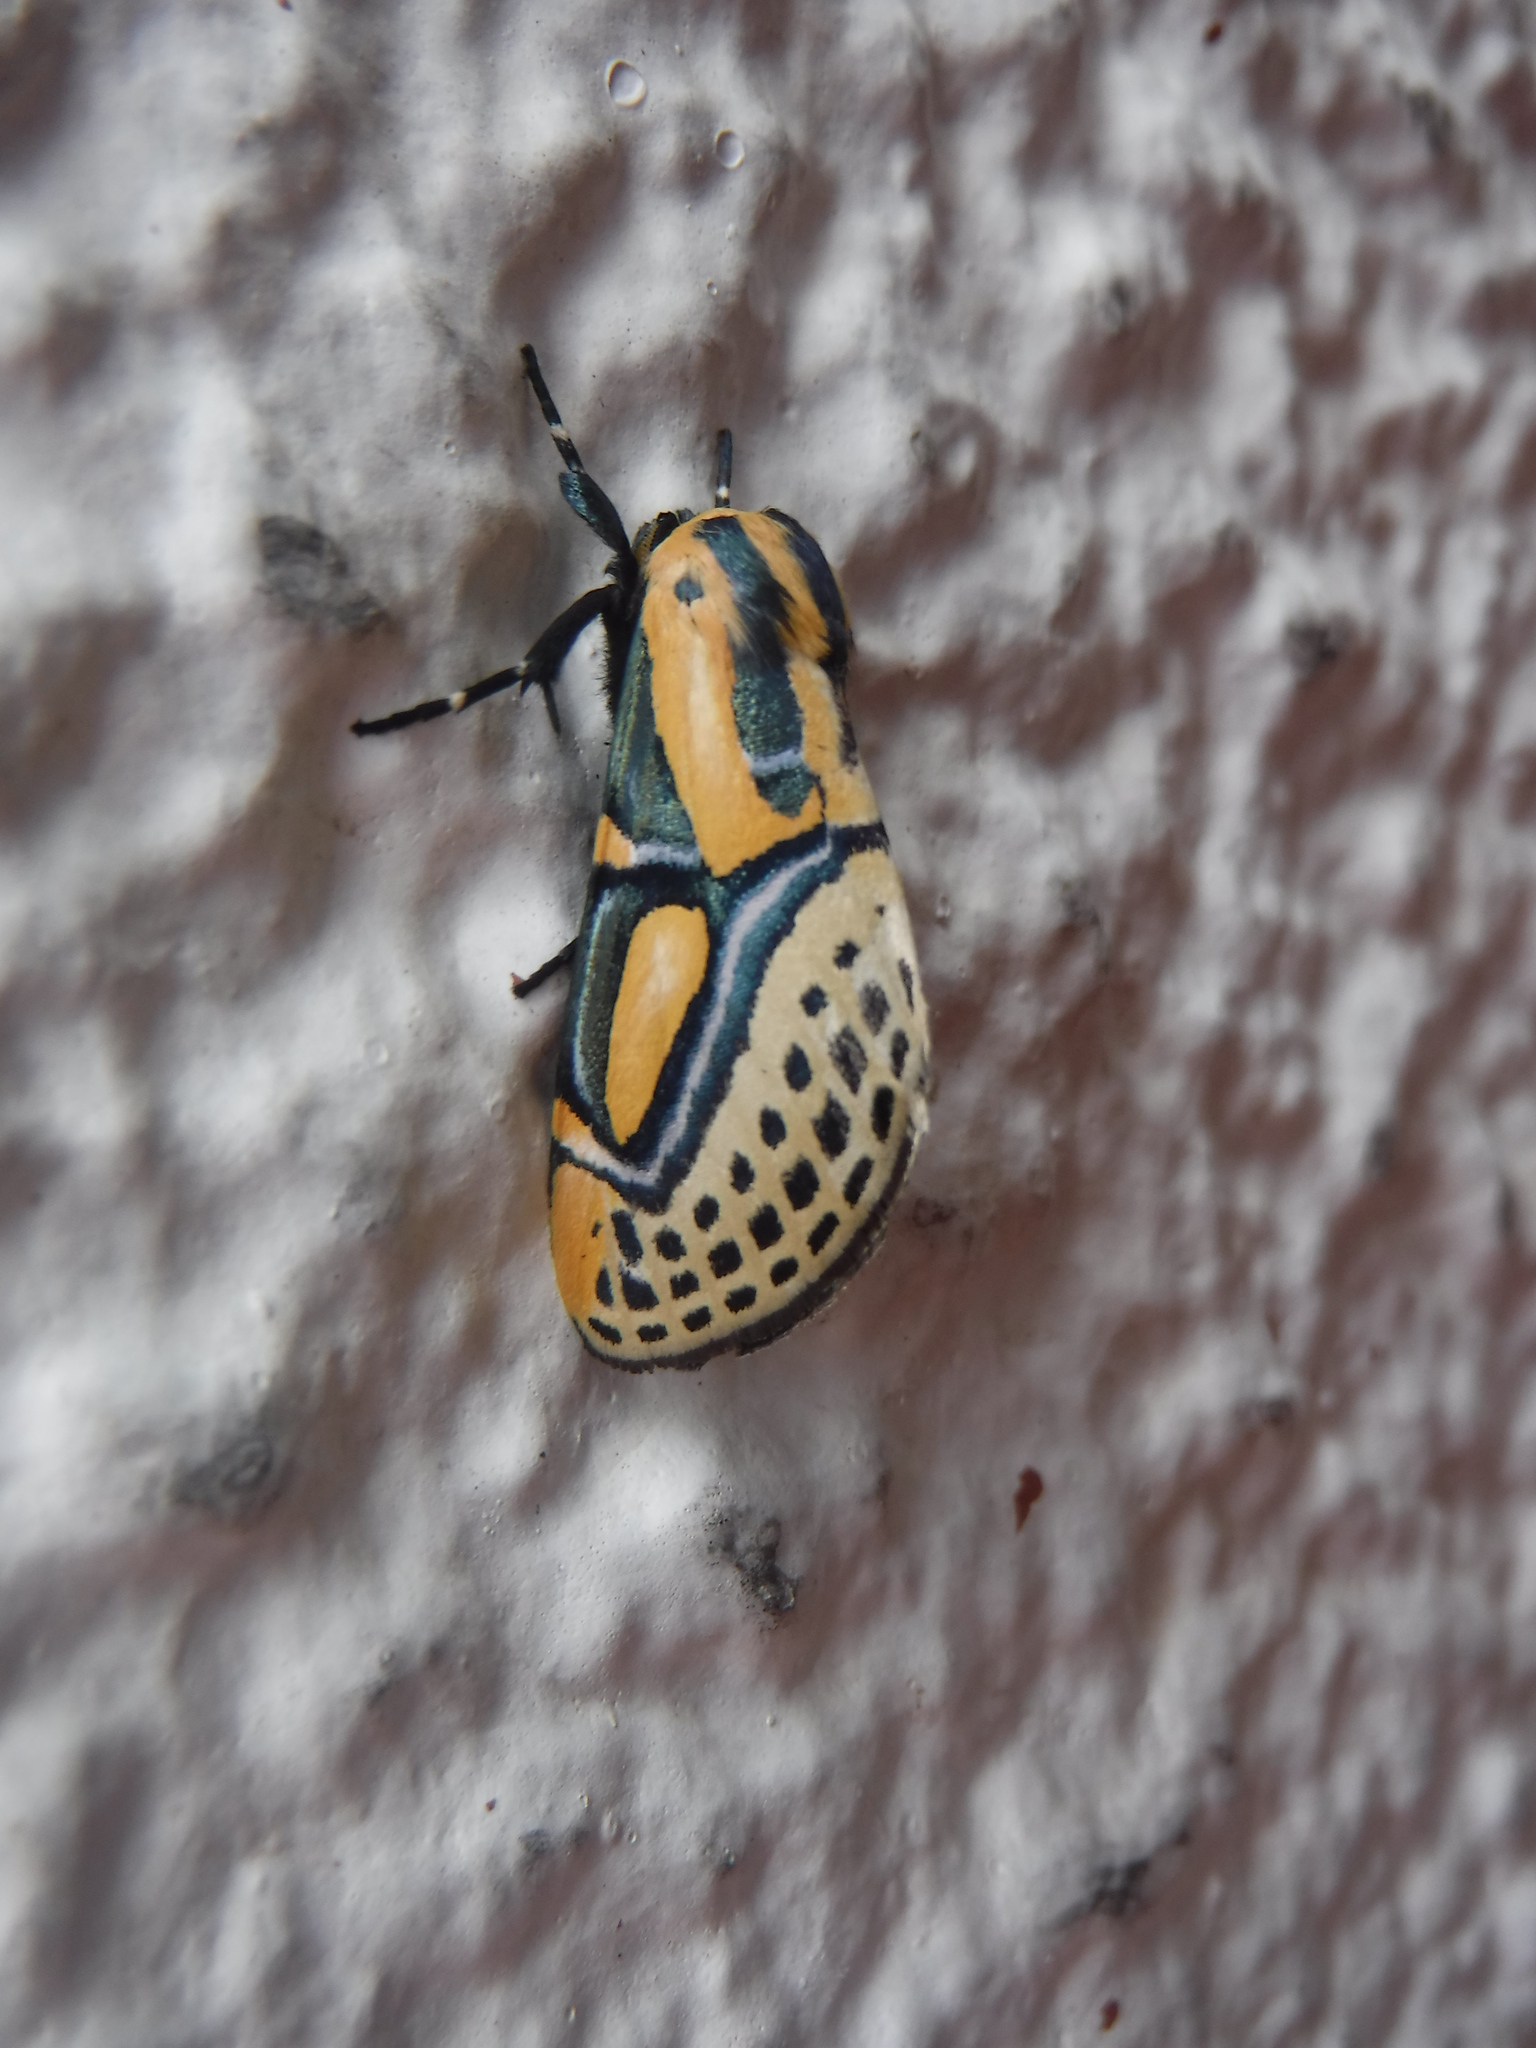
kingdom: Animalia
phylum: Arthropoda
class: Insecta
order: Lepidoptera
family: Erebidae
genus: Diphthera
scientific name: Diphthera festiva
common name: Hieroglyphic moth
